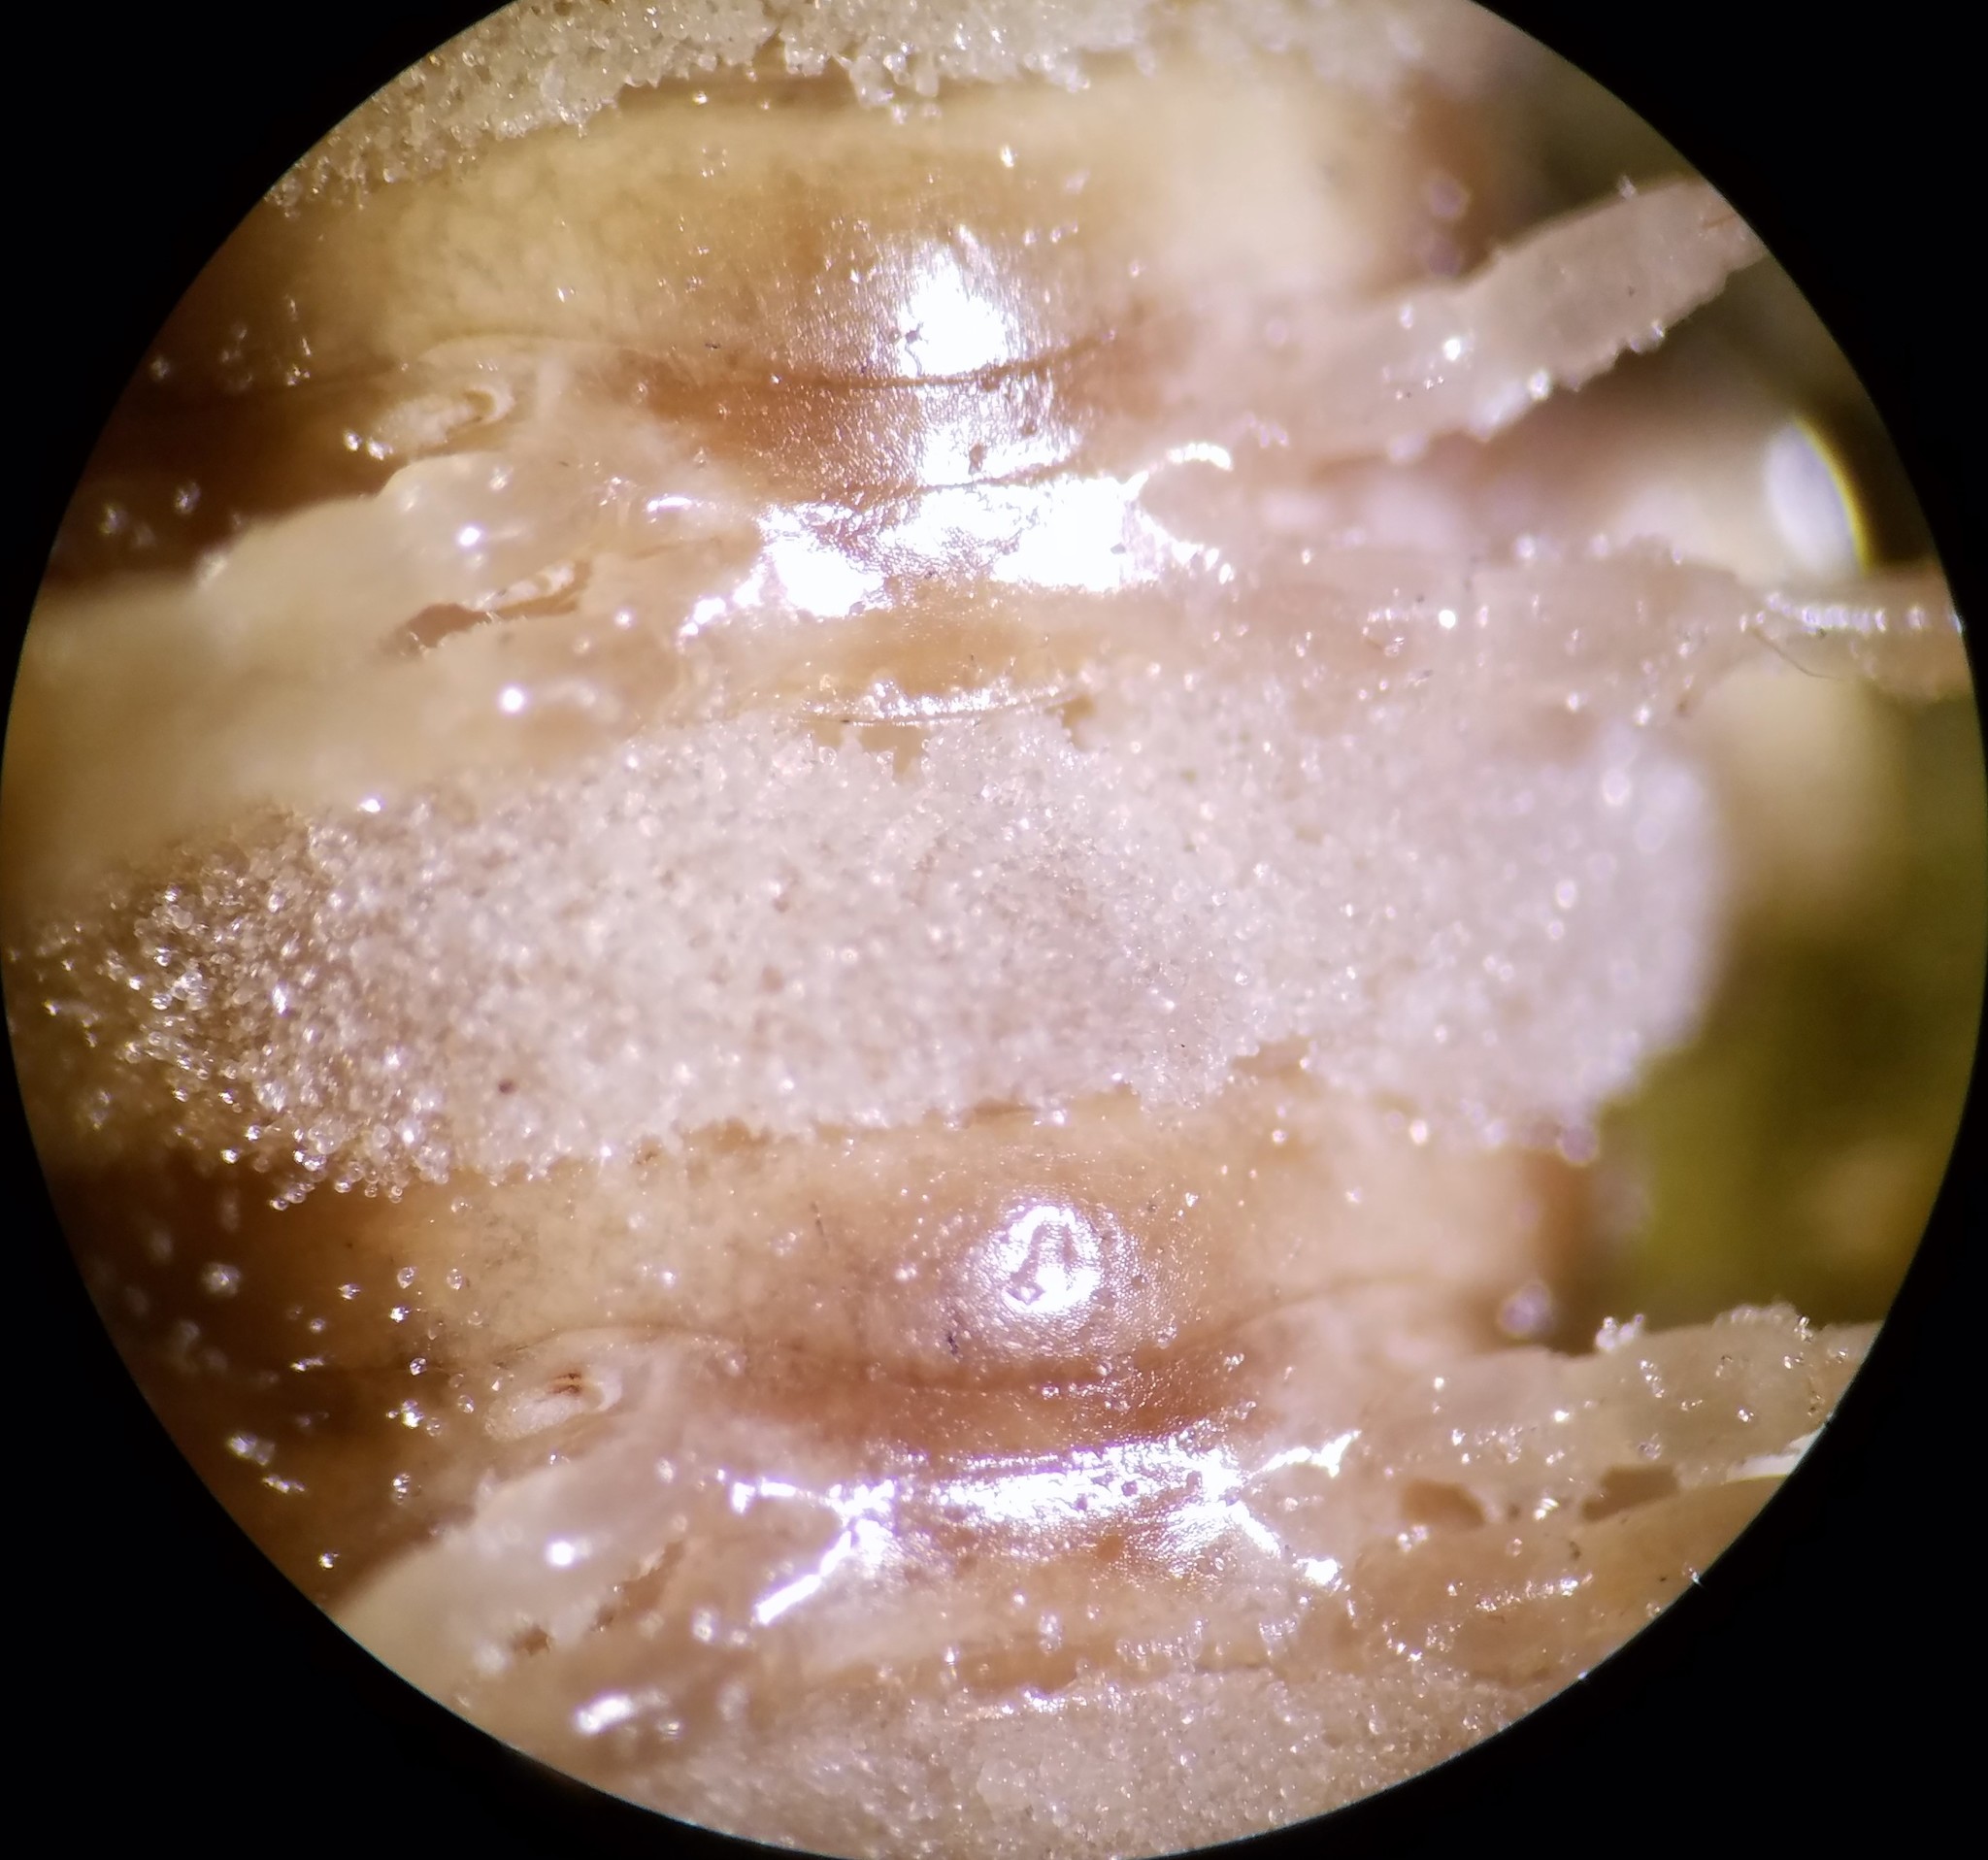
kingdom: Fungi
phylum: Entomophthoromycota
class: Entomophthoromycetes
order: Entomophthorales
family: Entomophthoraceae
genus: Arthrophaga
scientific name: Arthrophaga myriapodina
